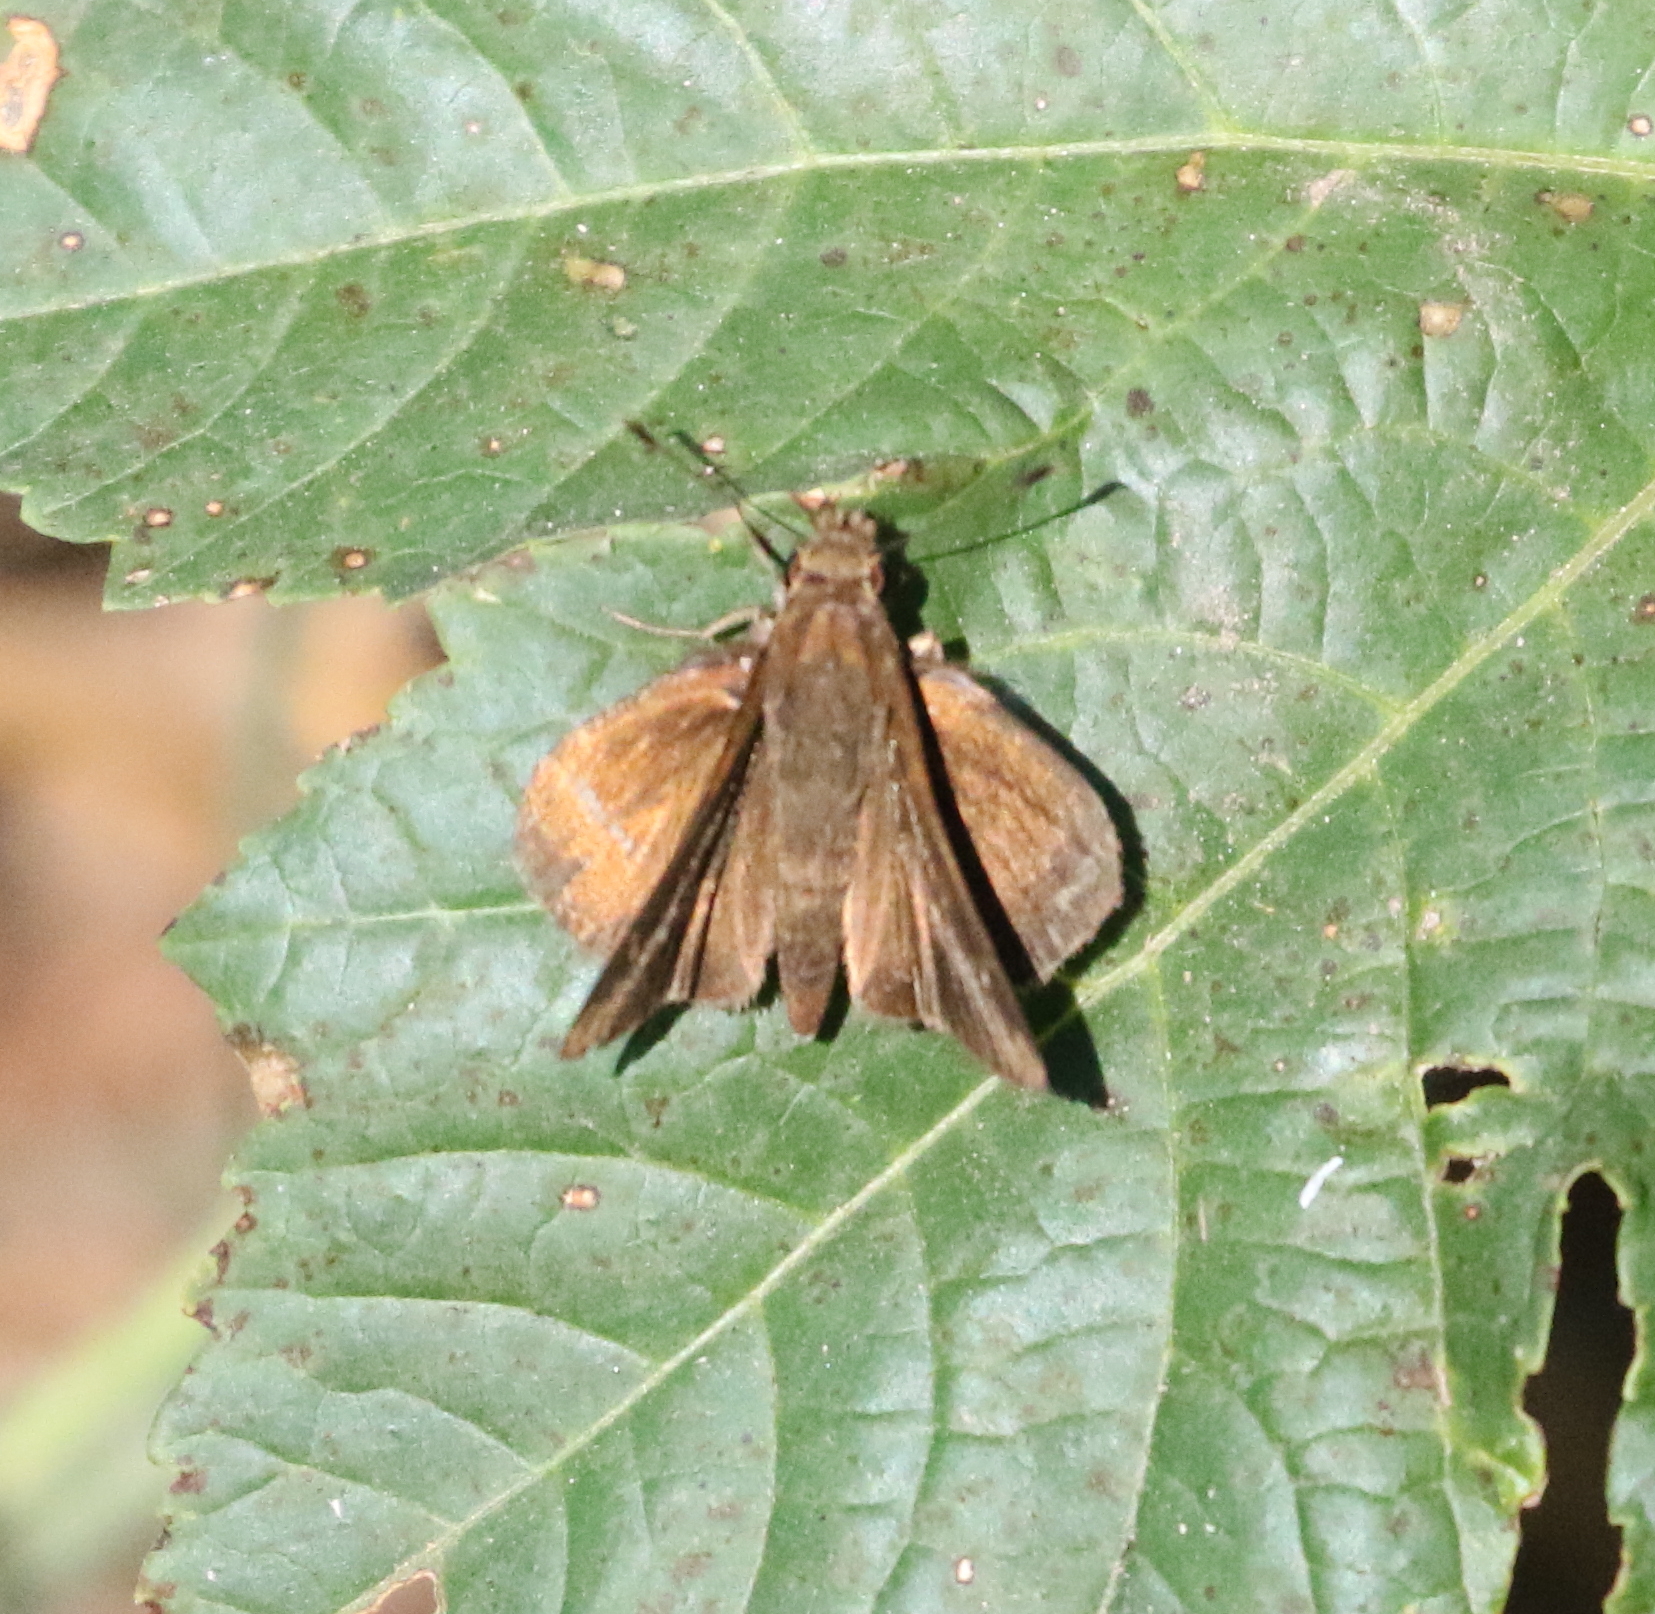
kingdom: Animalia
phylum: Arthropoda
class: Insecta
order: Lepidoptera
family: Hesperiidae
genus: Lerema
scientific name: Lerema accius
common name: Clouded skipper
